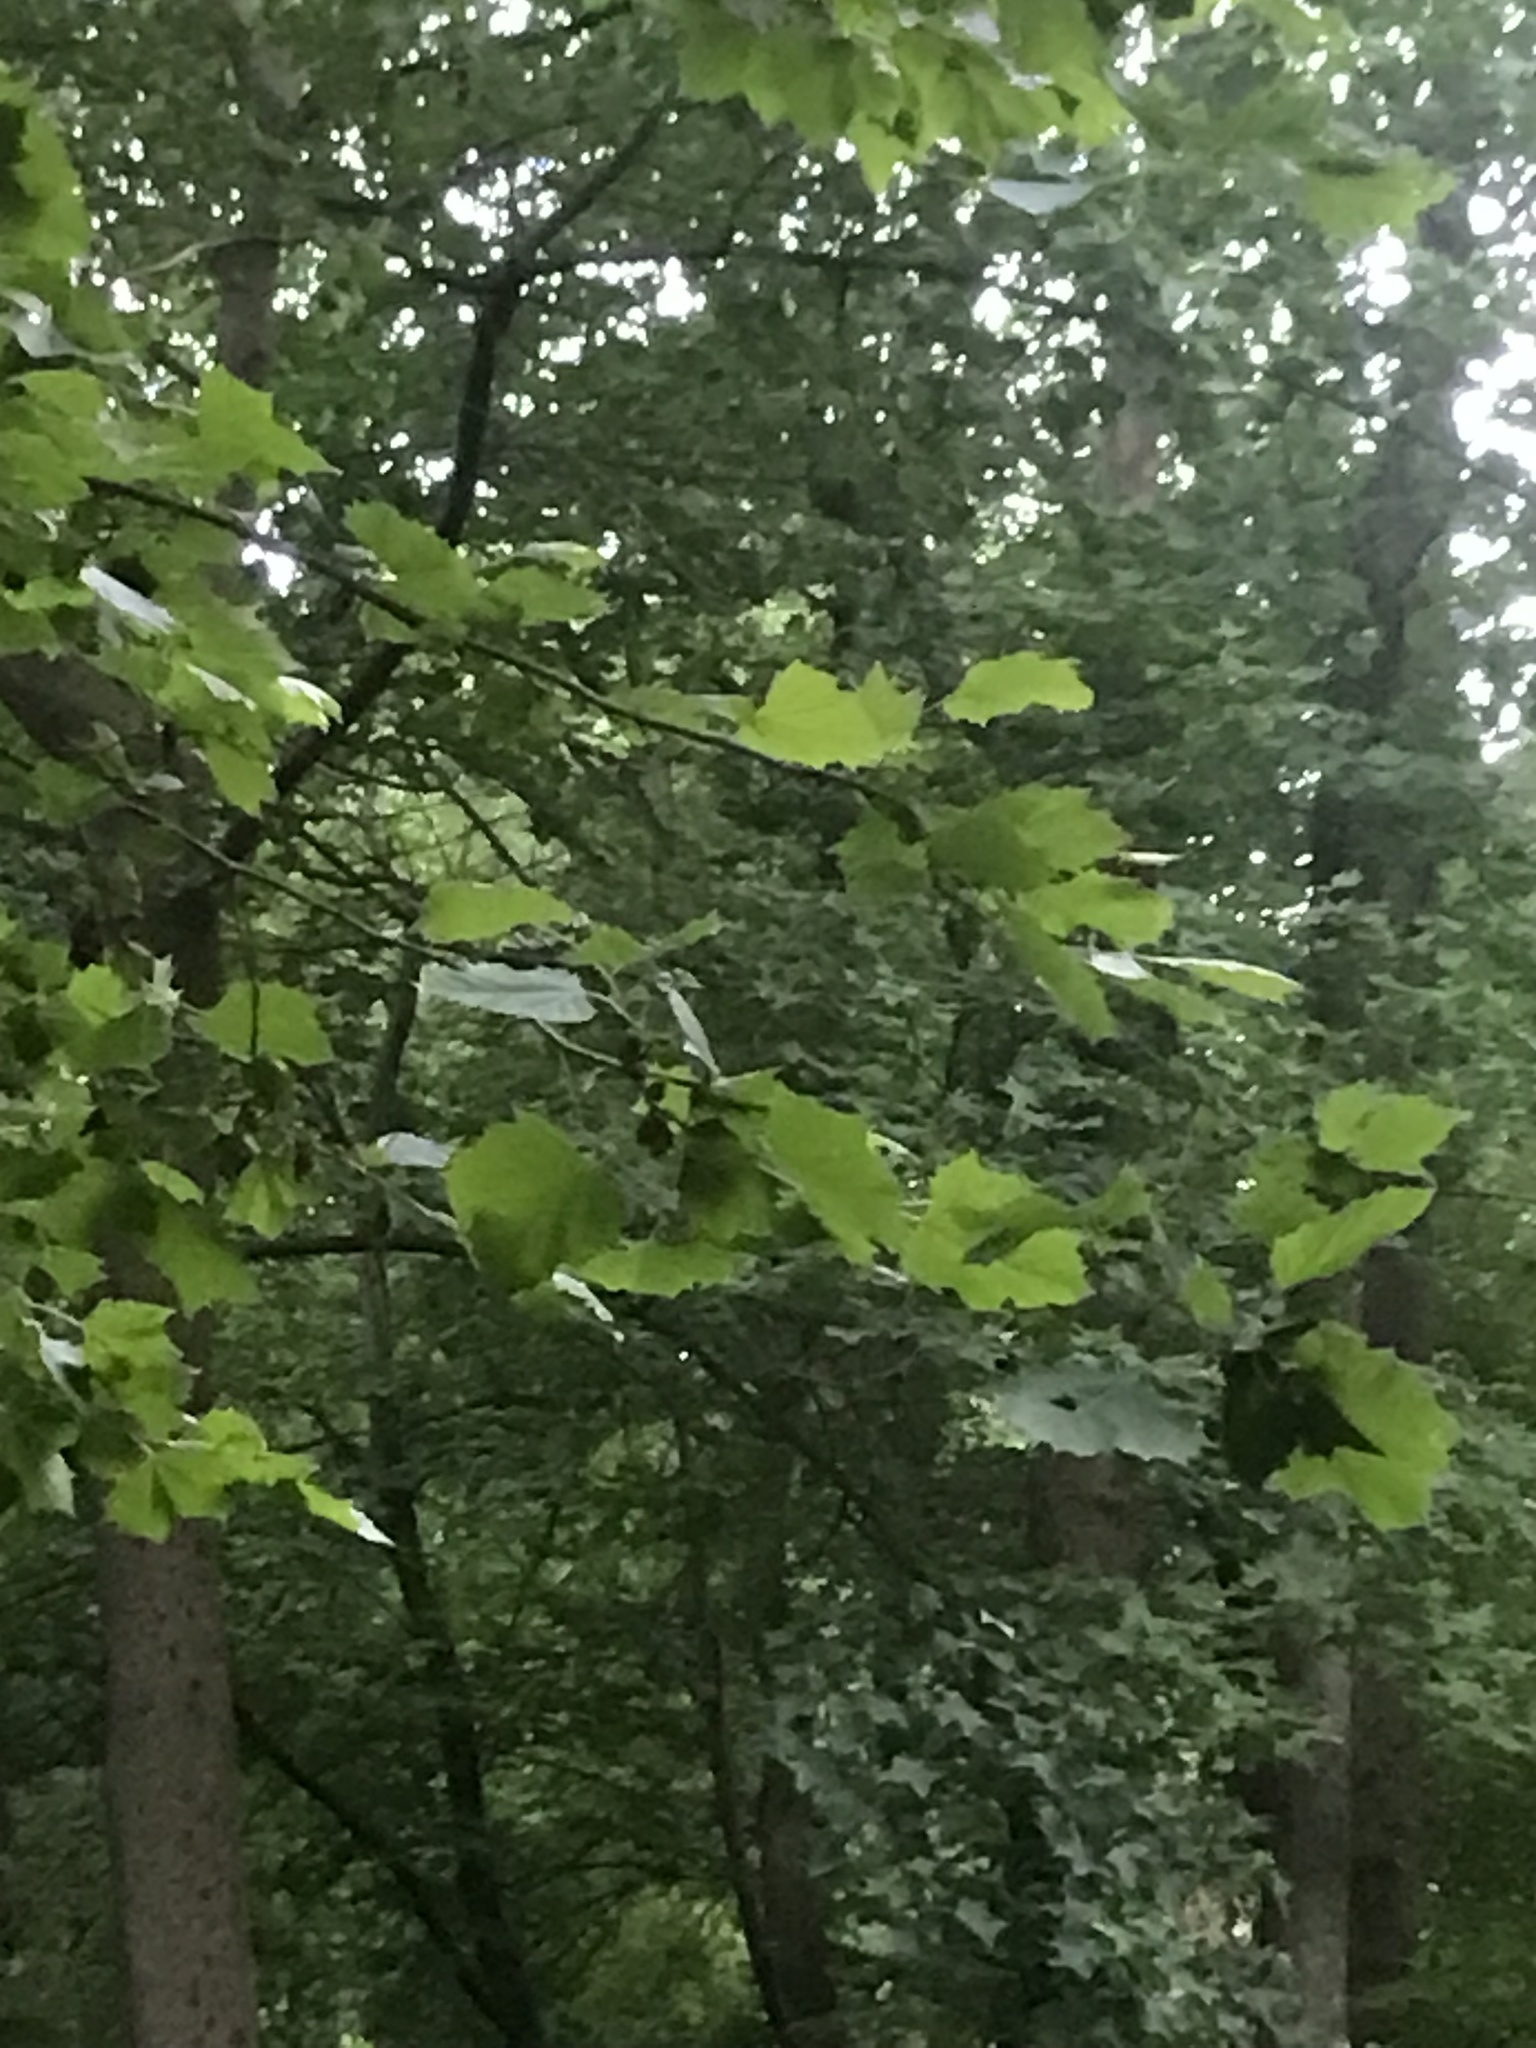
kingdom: Plantae
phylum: Tracheophyta
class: Magnoliopsida
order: Proteales
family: Platanaceae
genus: Platanus
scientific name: Platanus occidentalis
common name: American sycamore
